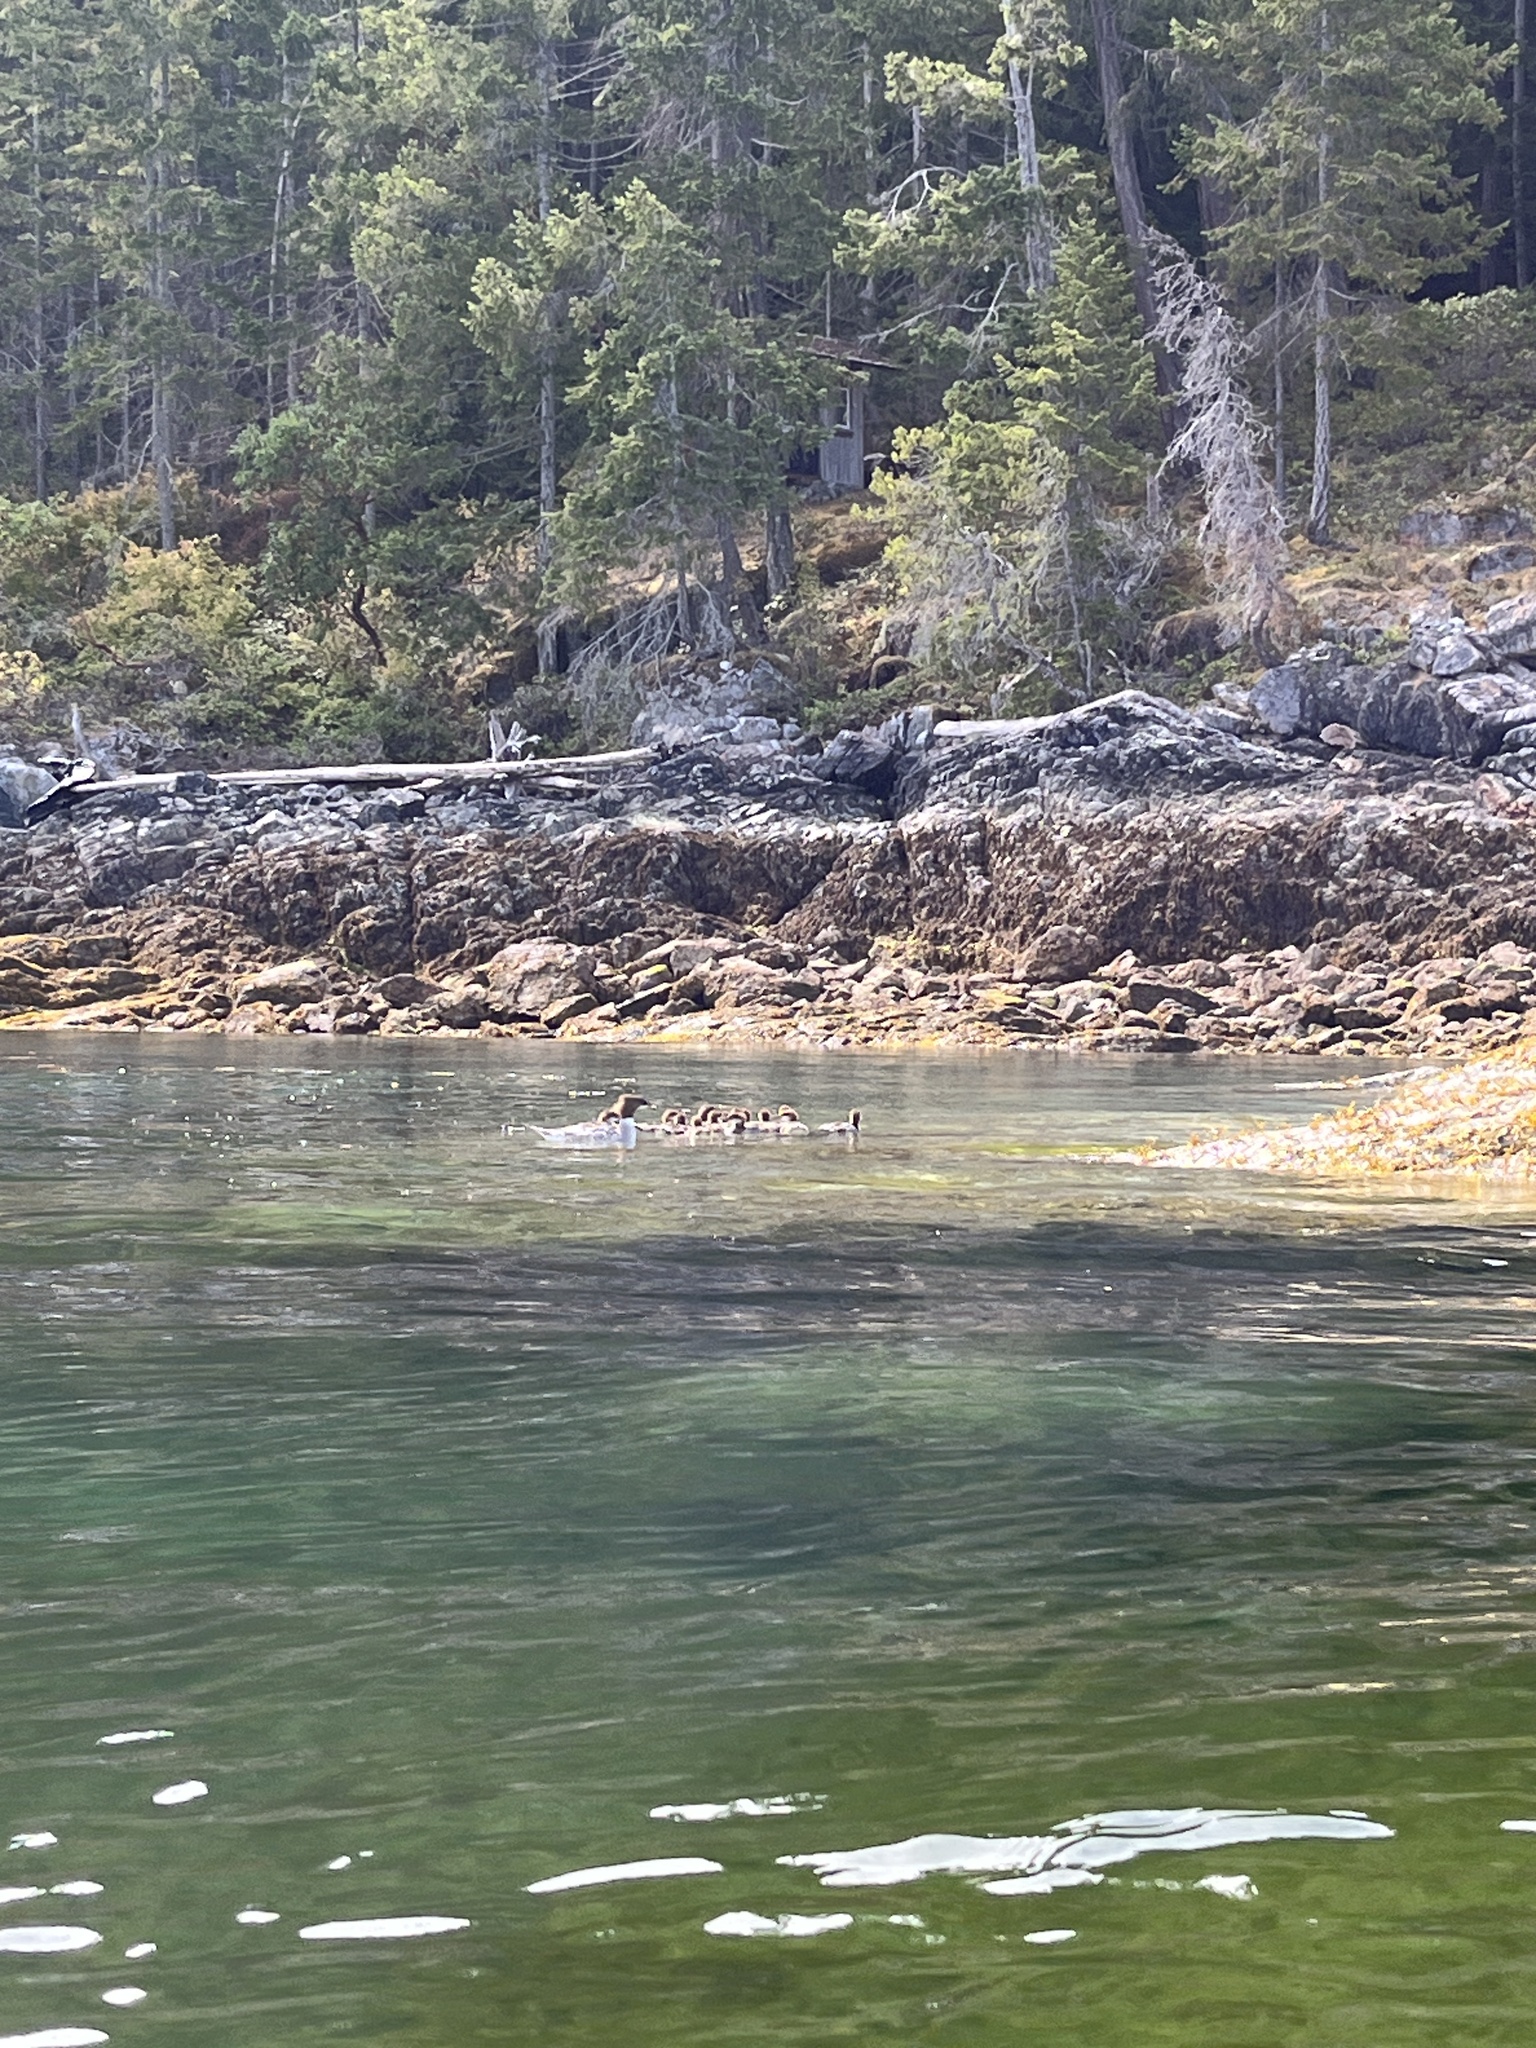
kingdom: Animalia
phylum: Chordata
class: Aves
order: Anseriformes
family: Anatidae
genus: Mergus
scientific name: Mergus merganser
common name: Common merganser
